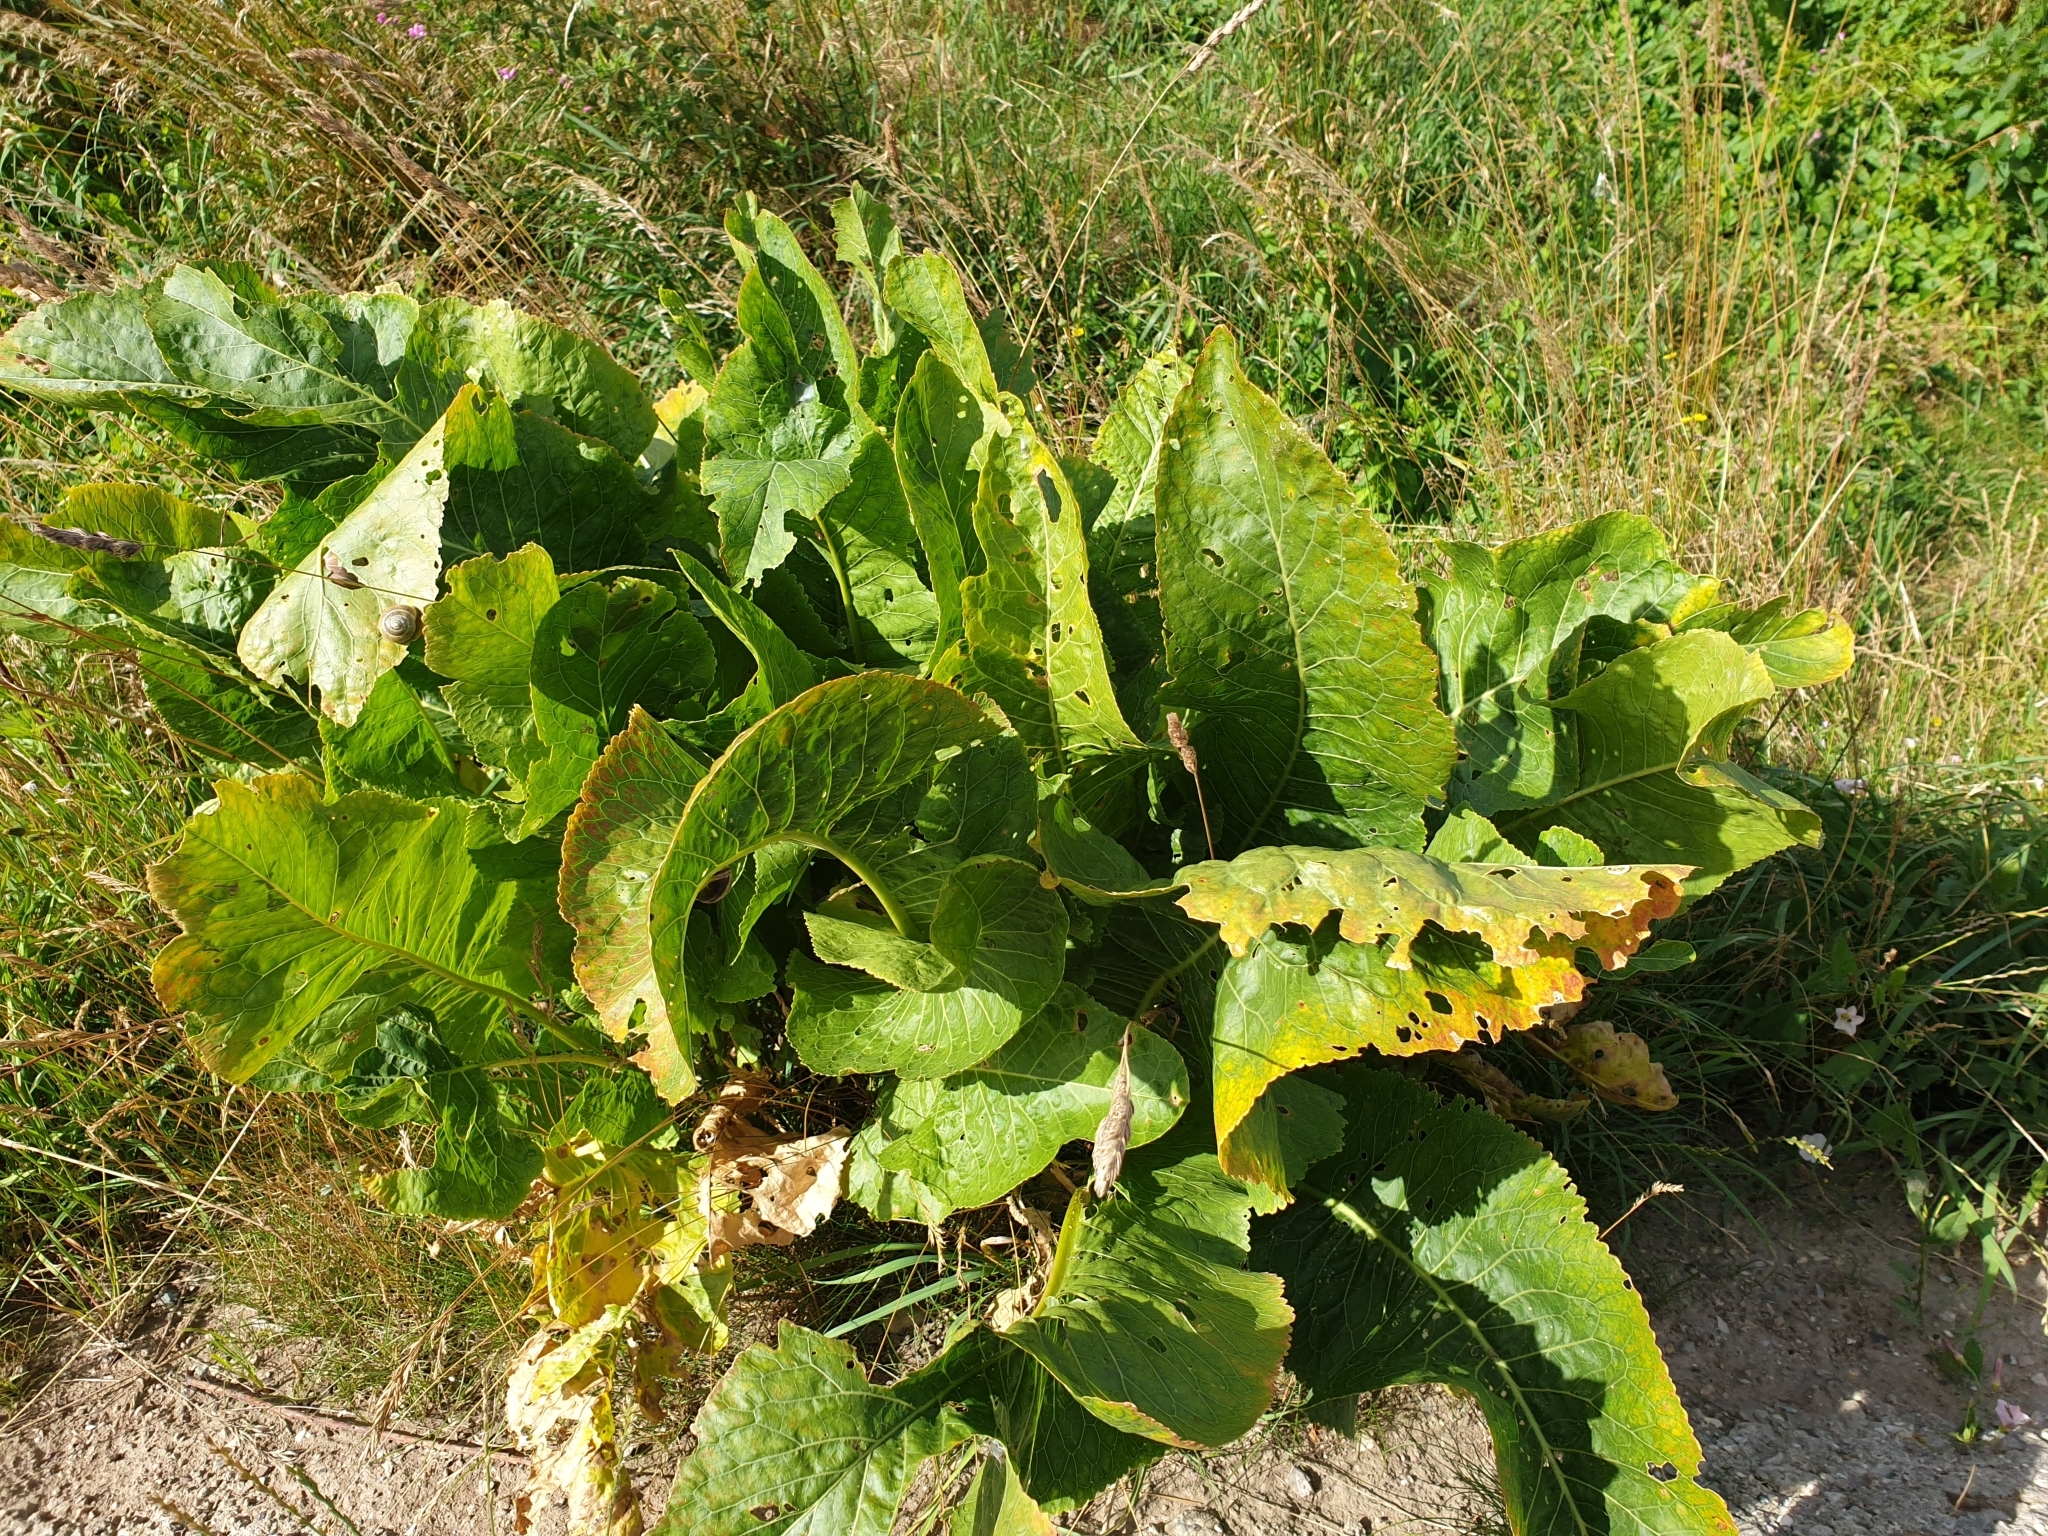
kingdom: Plantae
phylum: Tracheophyta
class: Magnoliopsida
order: Brassicales
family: Brassicaceae
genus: Armoracia
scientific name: Armoracia rusticana
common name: Horseradish
